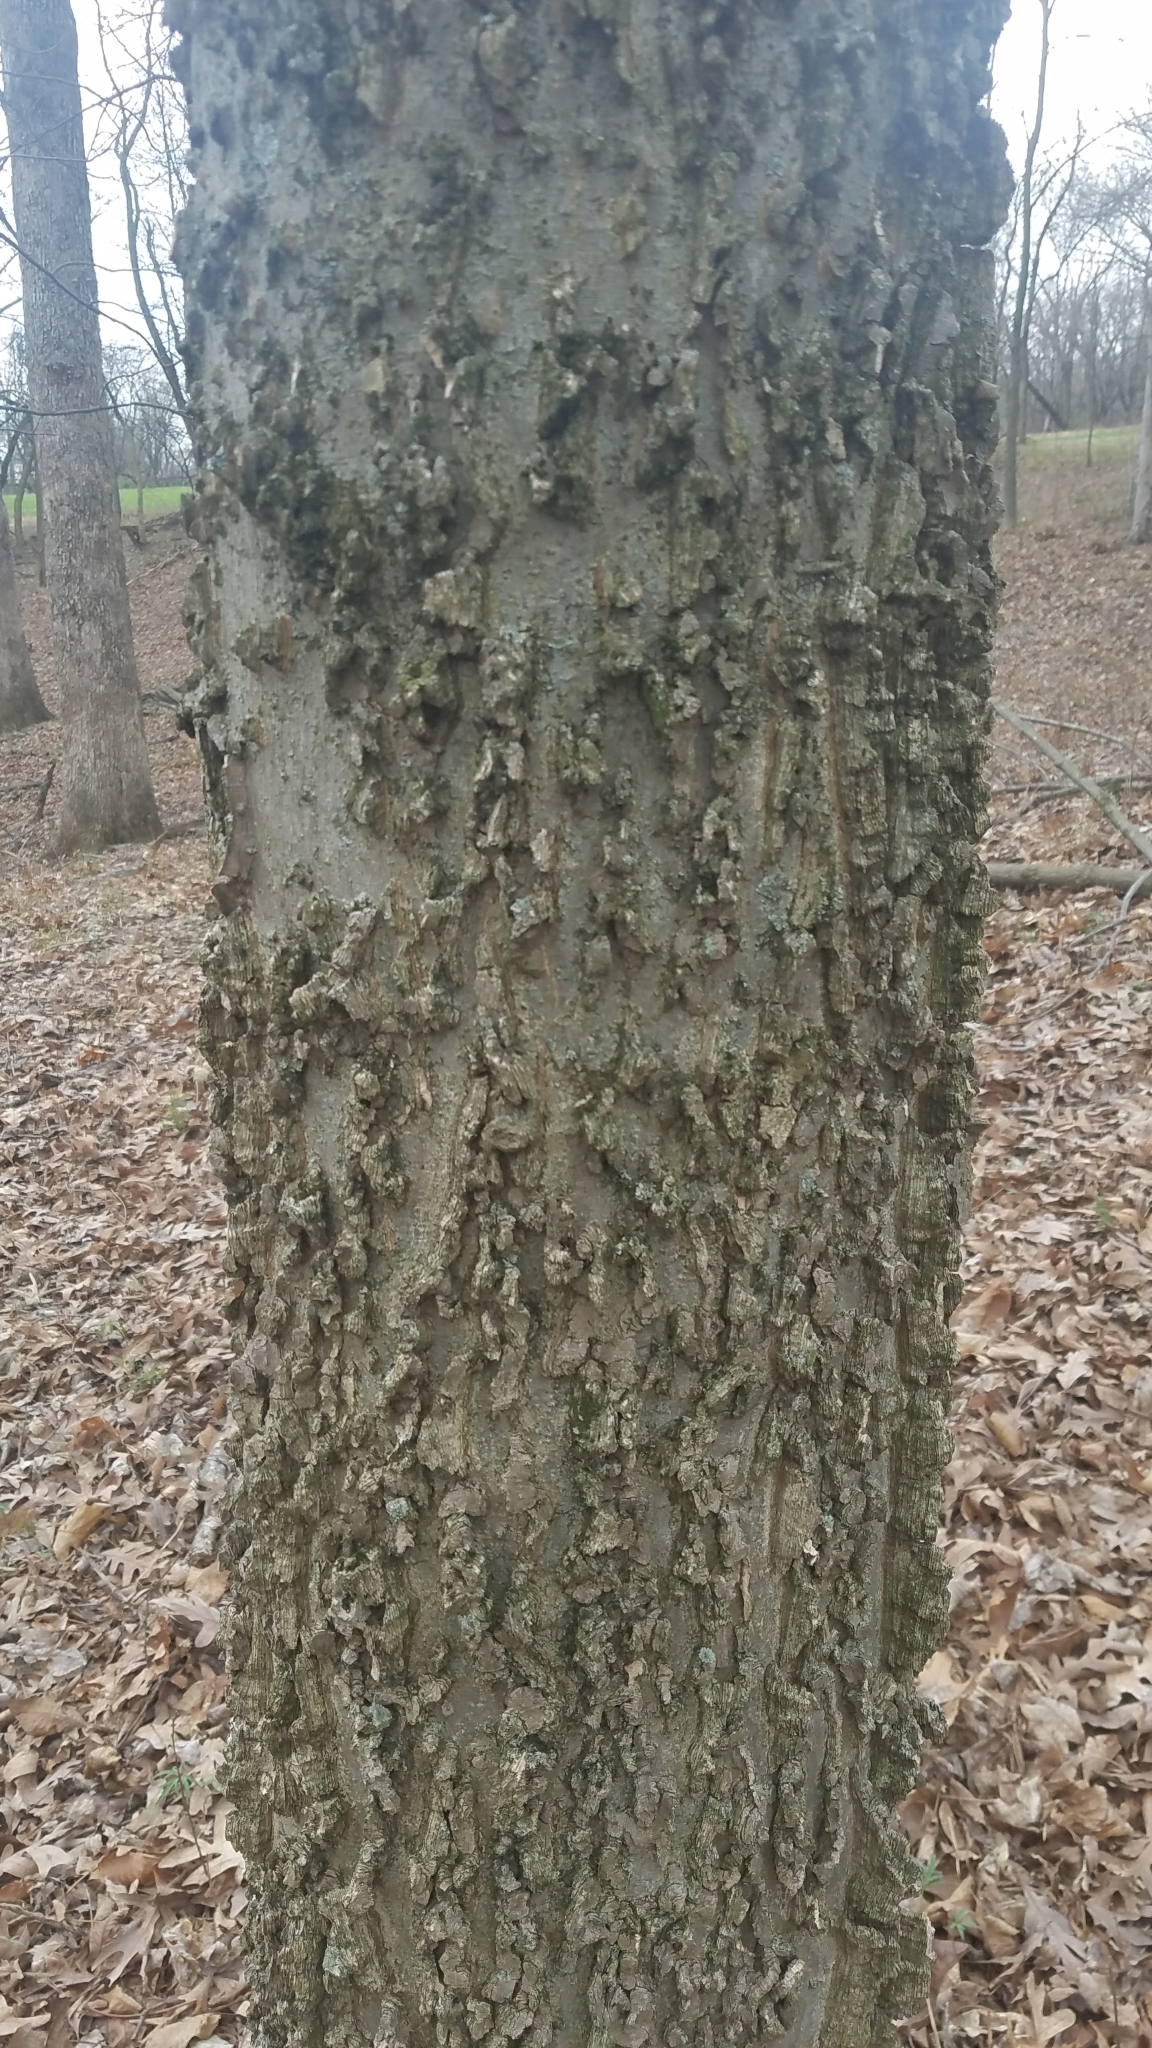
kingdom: Plantae
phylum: Tracheophyta
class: Magnoliopsida
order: Rosales
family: Cannabaceae
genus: Celtis
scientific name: Celtis occidentalis
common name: Common hackberry
